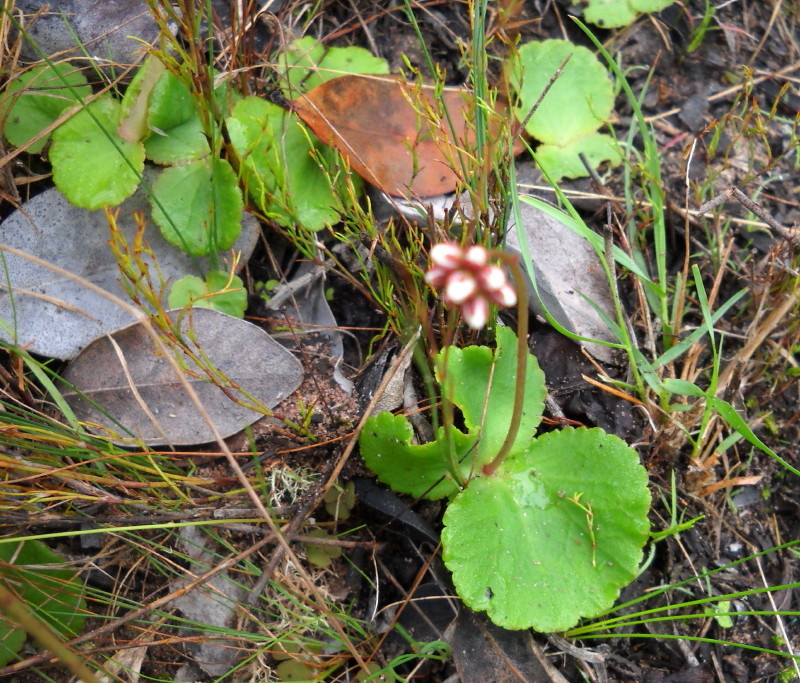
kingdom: Plantae
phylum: Tracheophyta
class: Magnoliopsida
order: Saxifragales
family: Crassulaceae
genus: Crassula
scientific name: Crassula saxifraga
